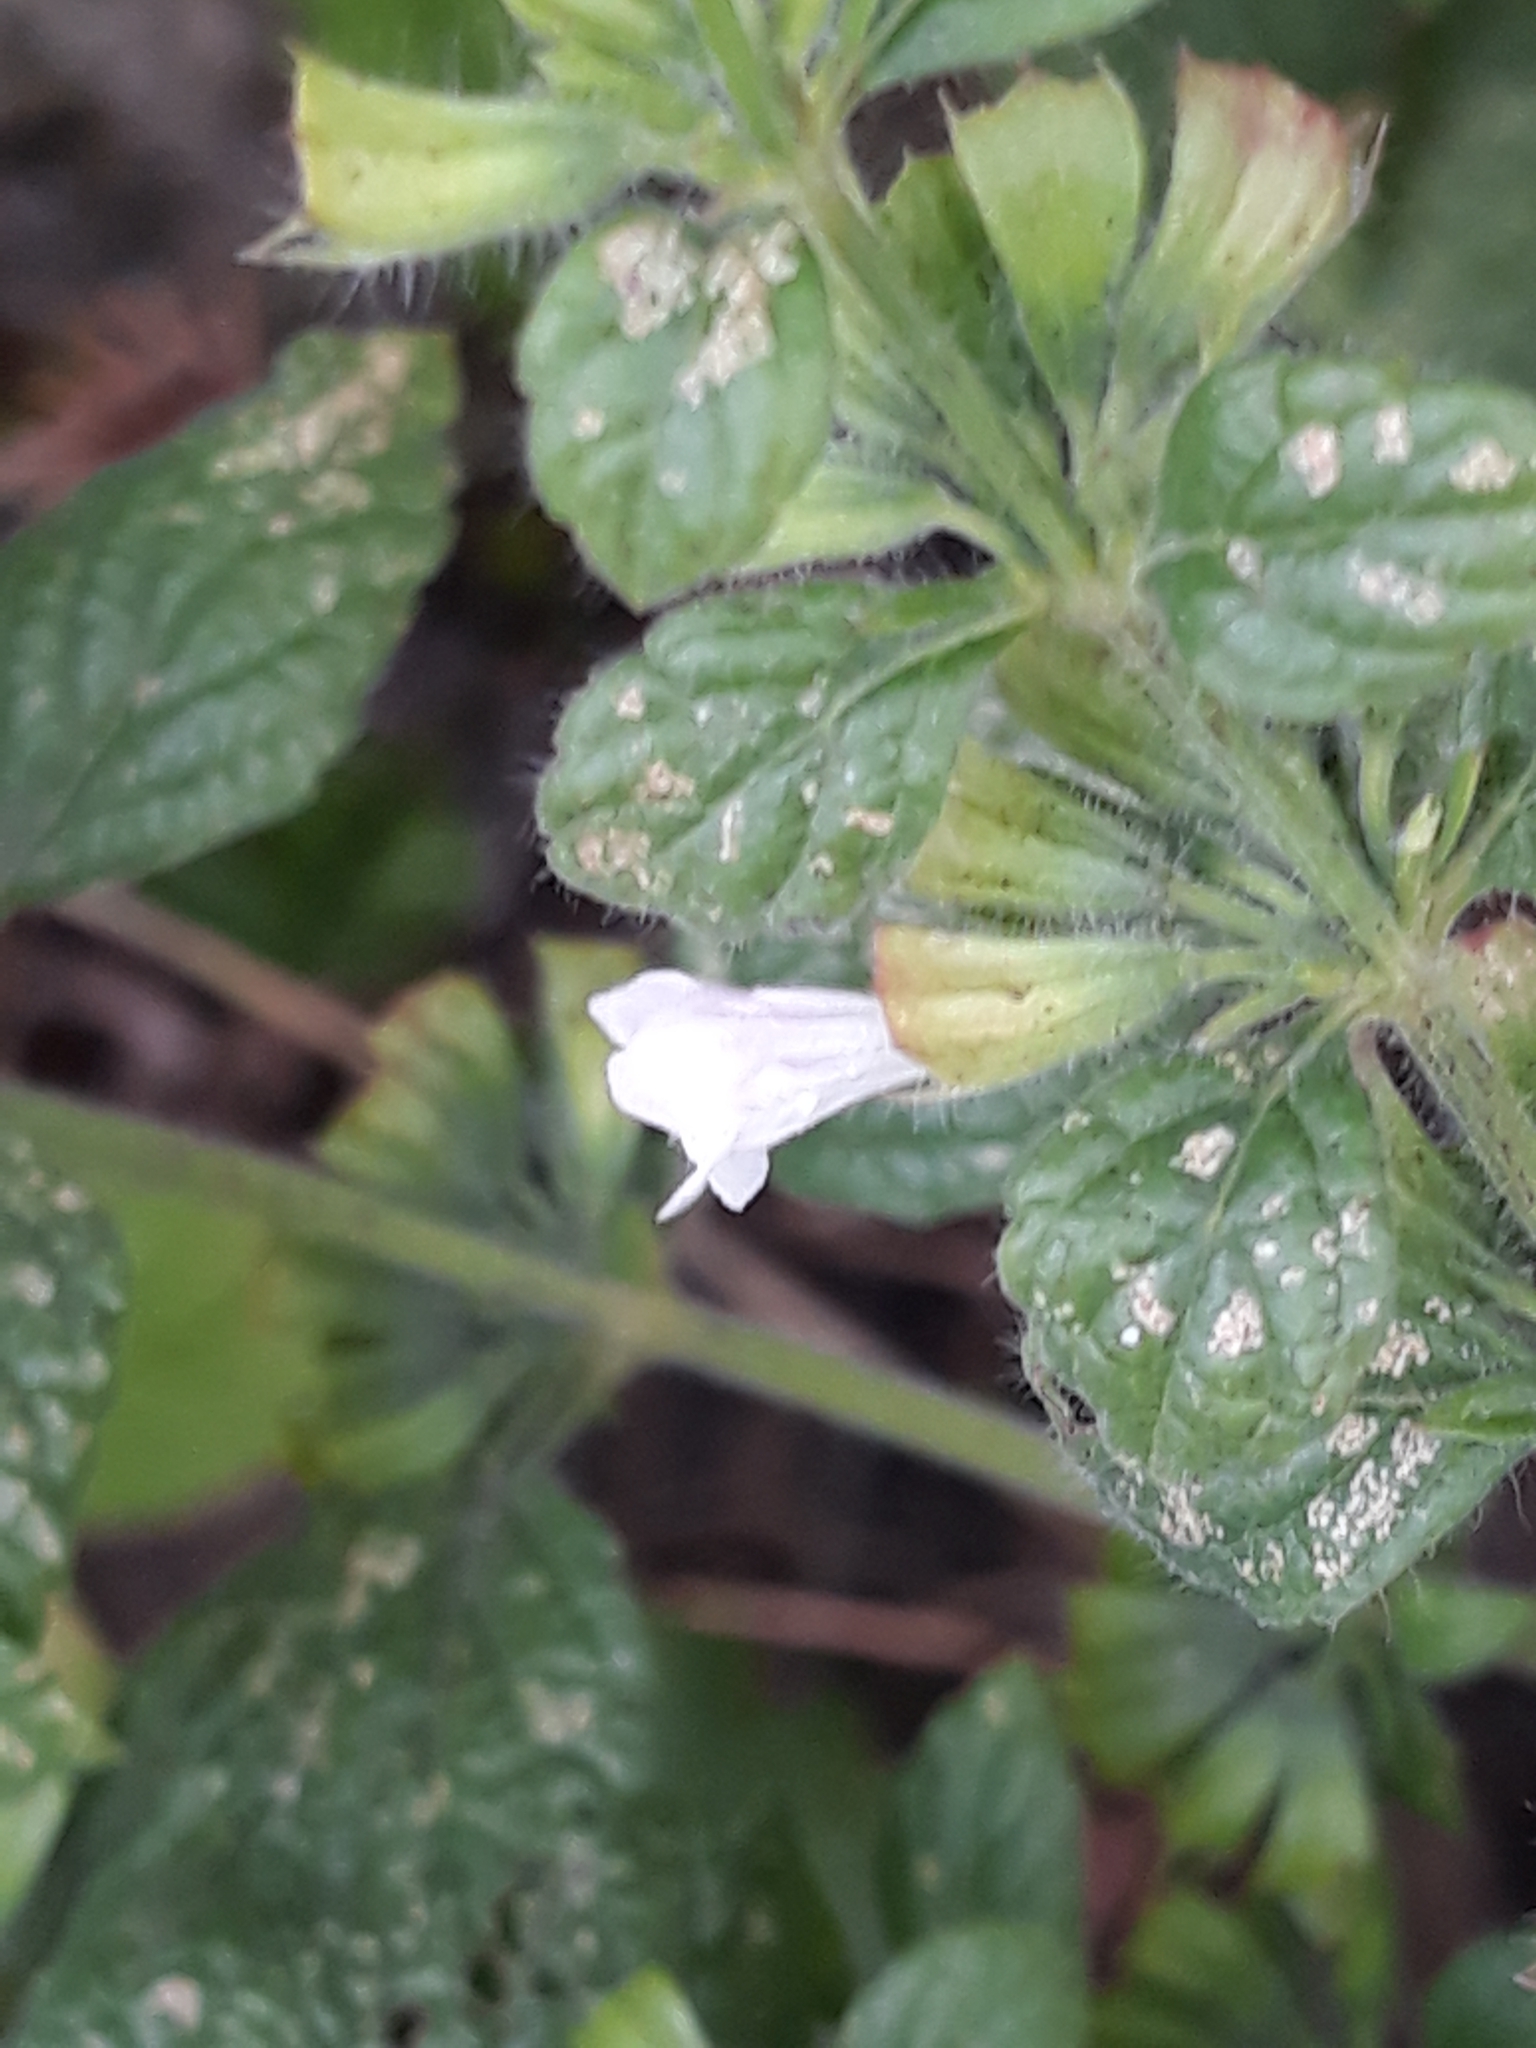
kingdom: Plantae
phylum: Tracheophyta
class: Magnoliopsida
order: Lamiales
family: Lamiaceae
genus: Melissa
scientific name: Melissa officinalis
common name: Balm
